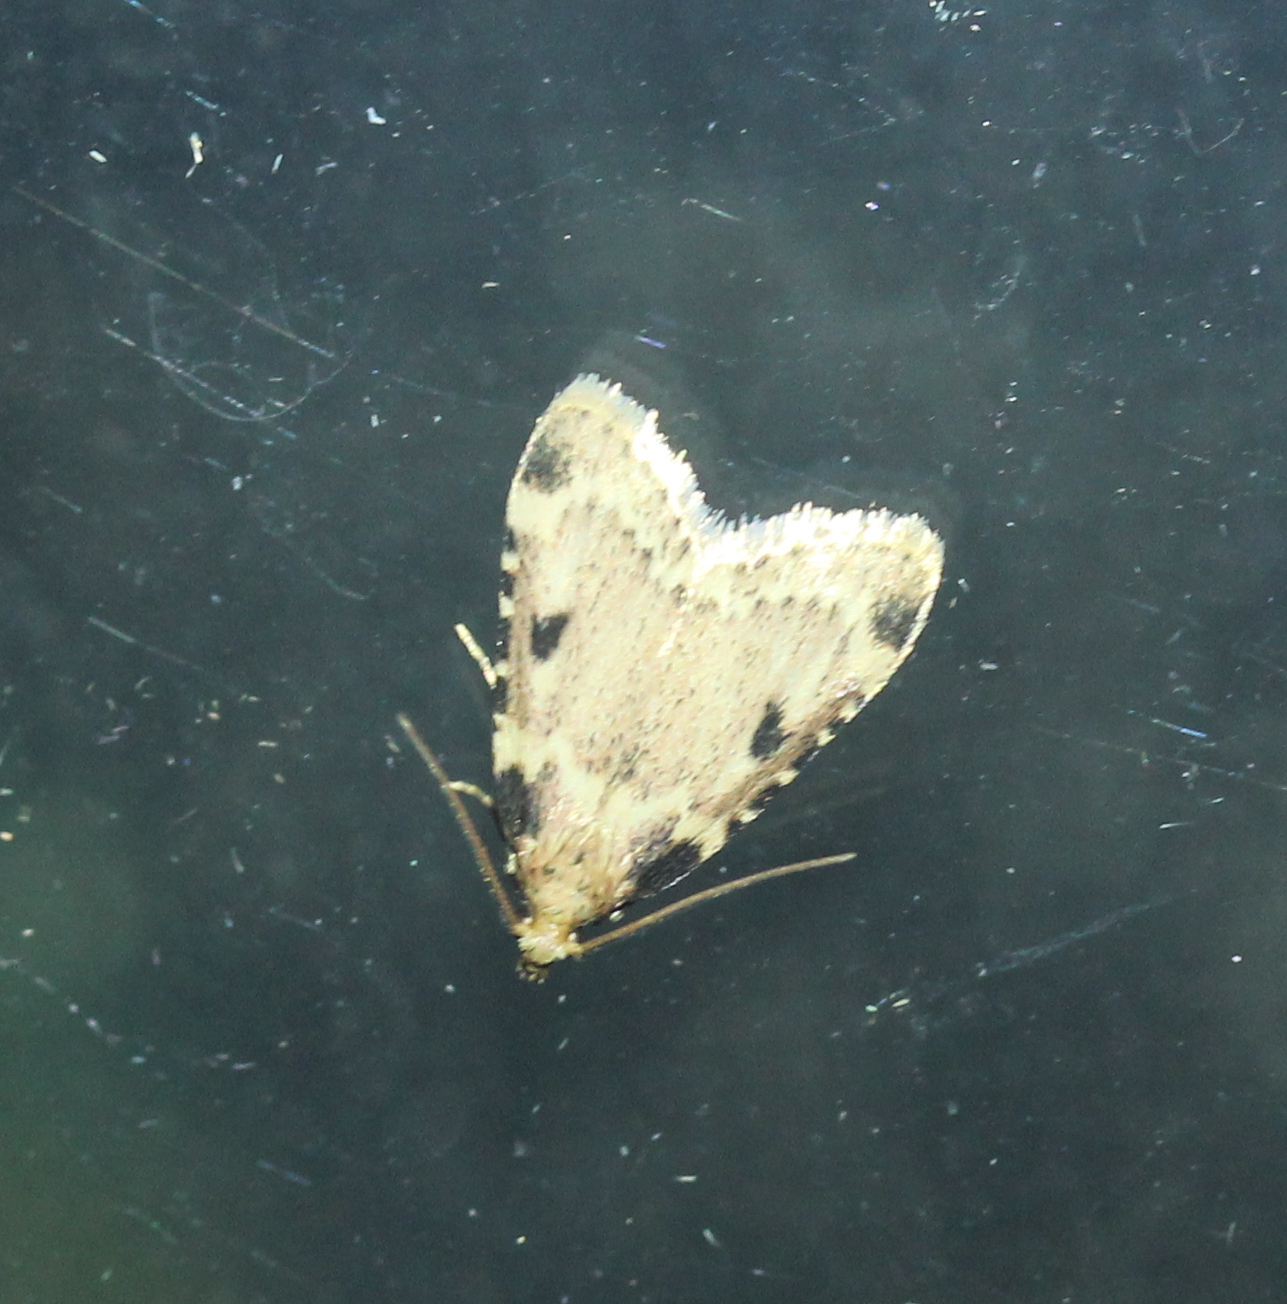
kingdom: Animalia
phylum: Arthropoda
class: Insecta
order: Lepidoptera
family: Pyralidae
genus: Aglossa
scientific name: Aglossa costiferalis
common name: Calico pyralid moth
